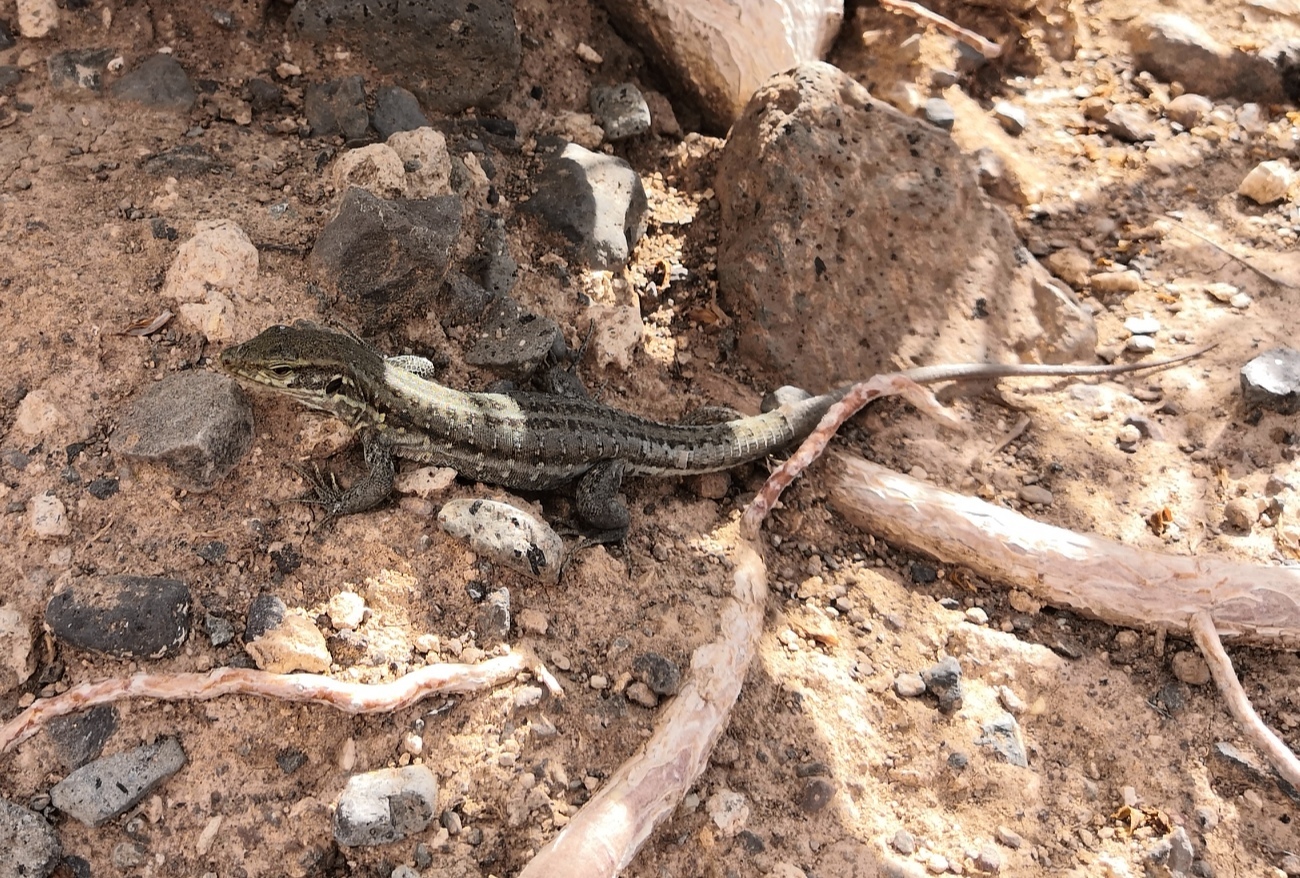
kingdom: Animalia
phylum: Chordata
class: Squamata
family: Lacertidae
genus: Gallotia
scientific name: Gallotia galloti
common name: Gallot's lizard
